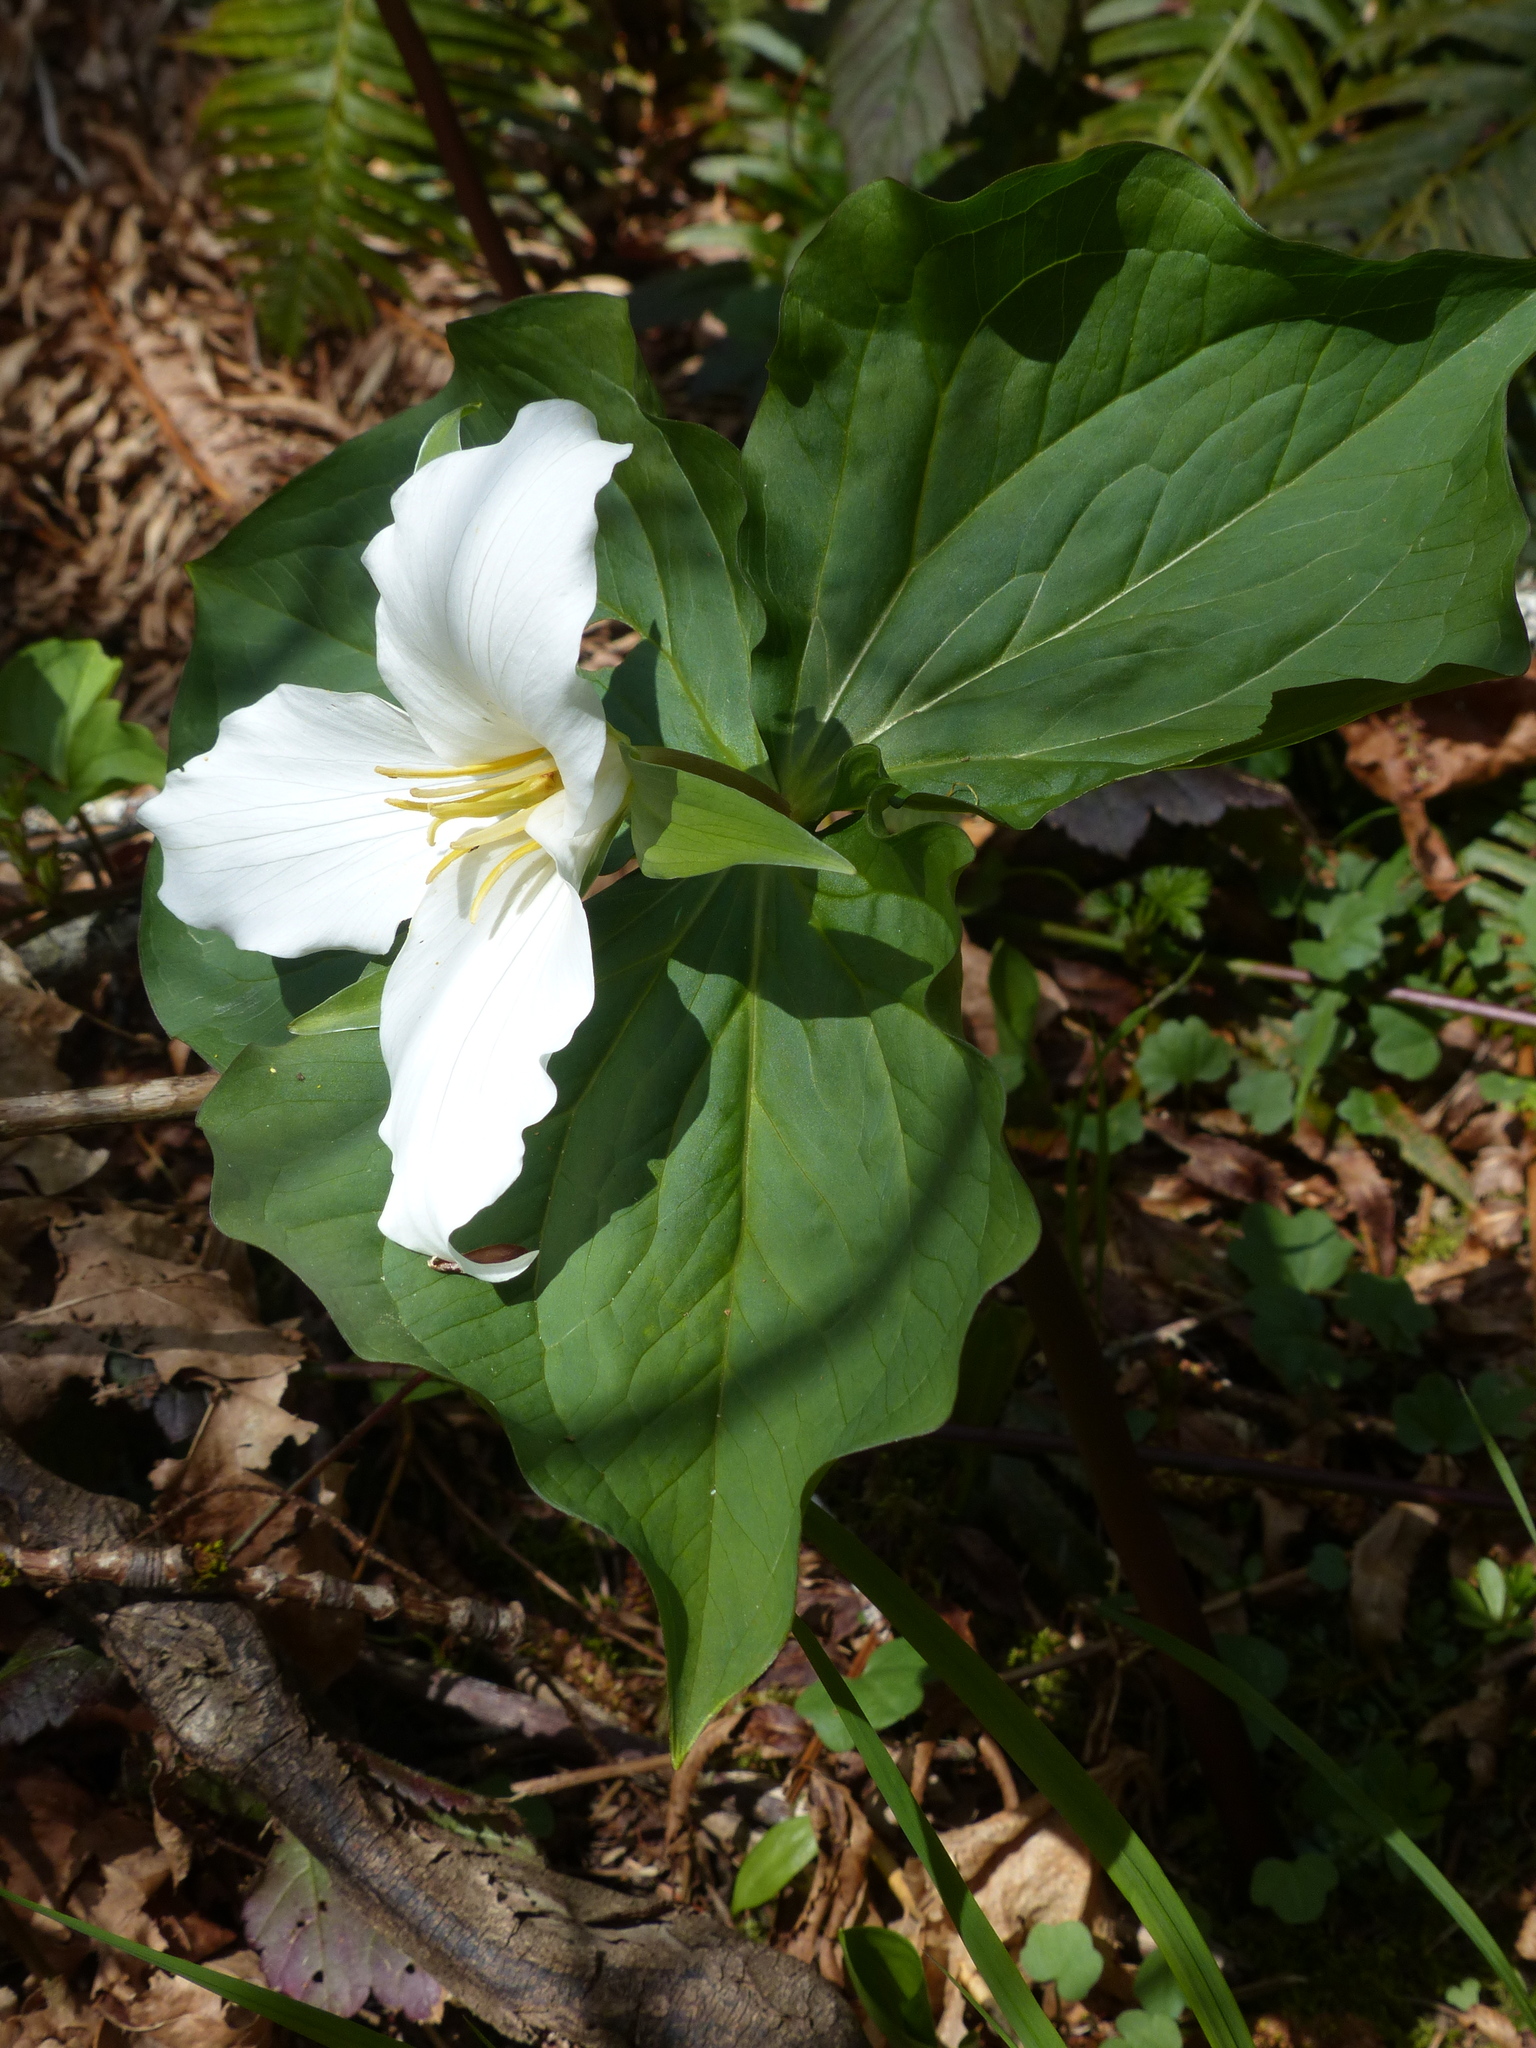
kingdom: Plantae
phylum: Tracheophyta
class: Liliopsida
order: Liliales
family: Melanthiaceae
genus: Trillium
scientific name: Trillium ovatum
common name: Pacific trillium
